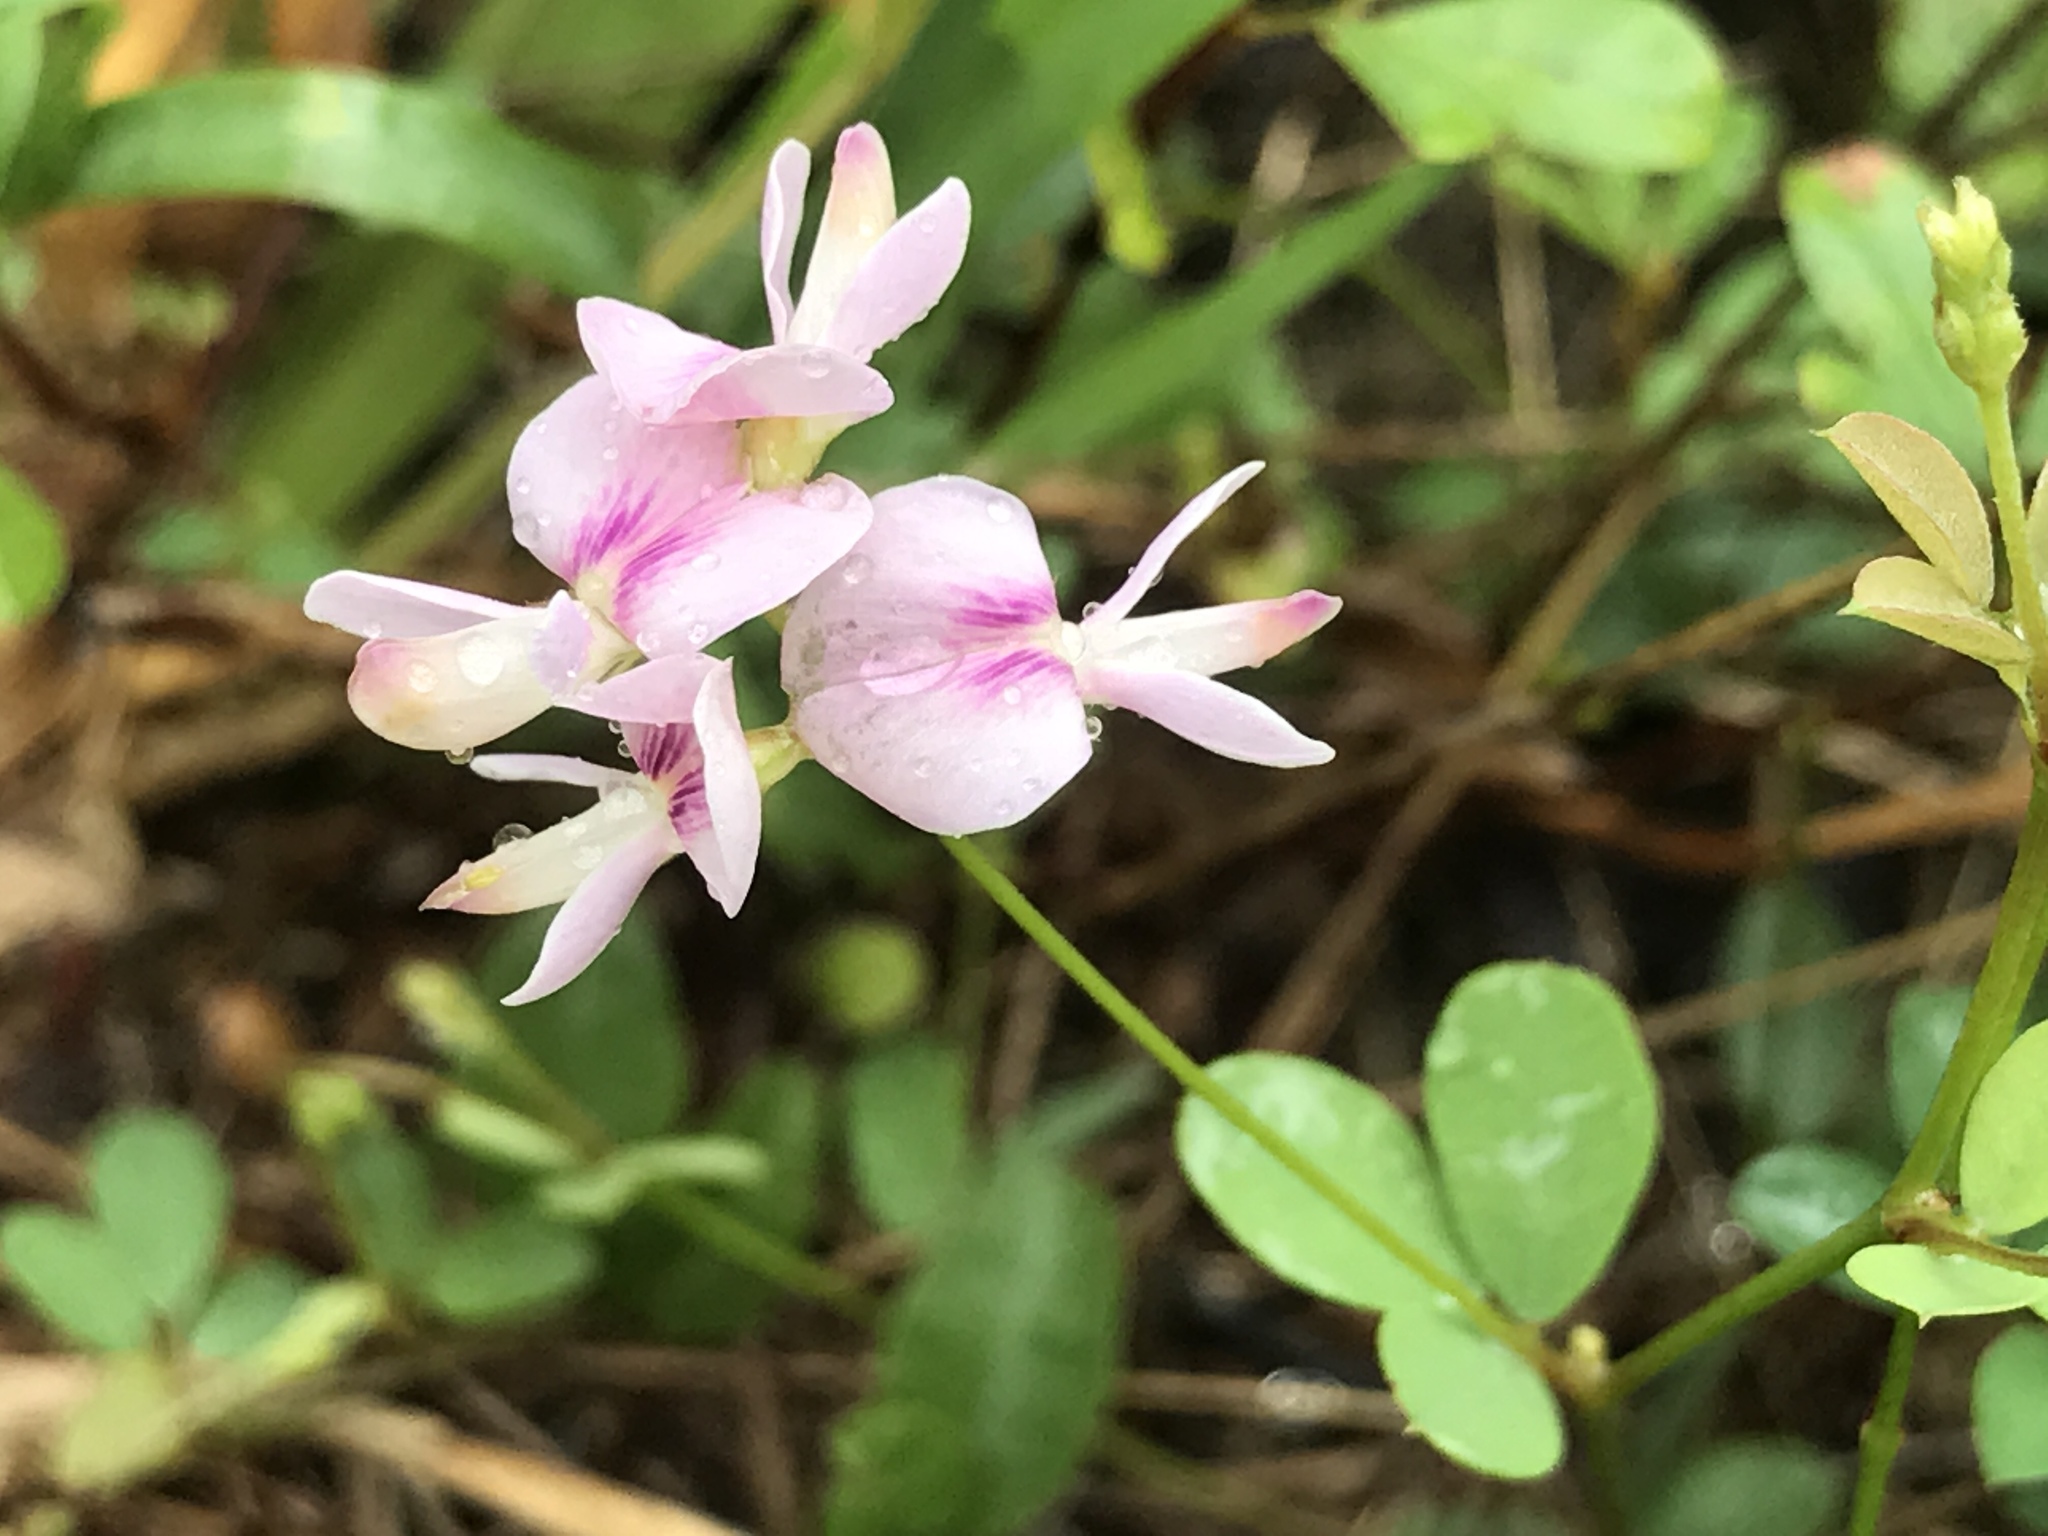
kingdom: Plantae
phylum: Tracheophyta
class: Magnoliopsida
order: Fabales
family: Fabaceae
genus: Lespedeza
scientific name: Lespedeza repens
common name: Creeping bush-clover
